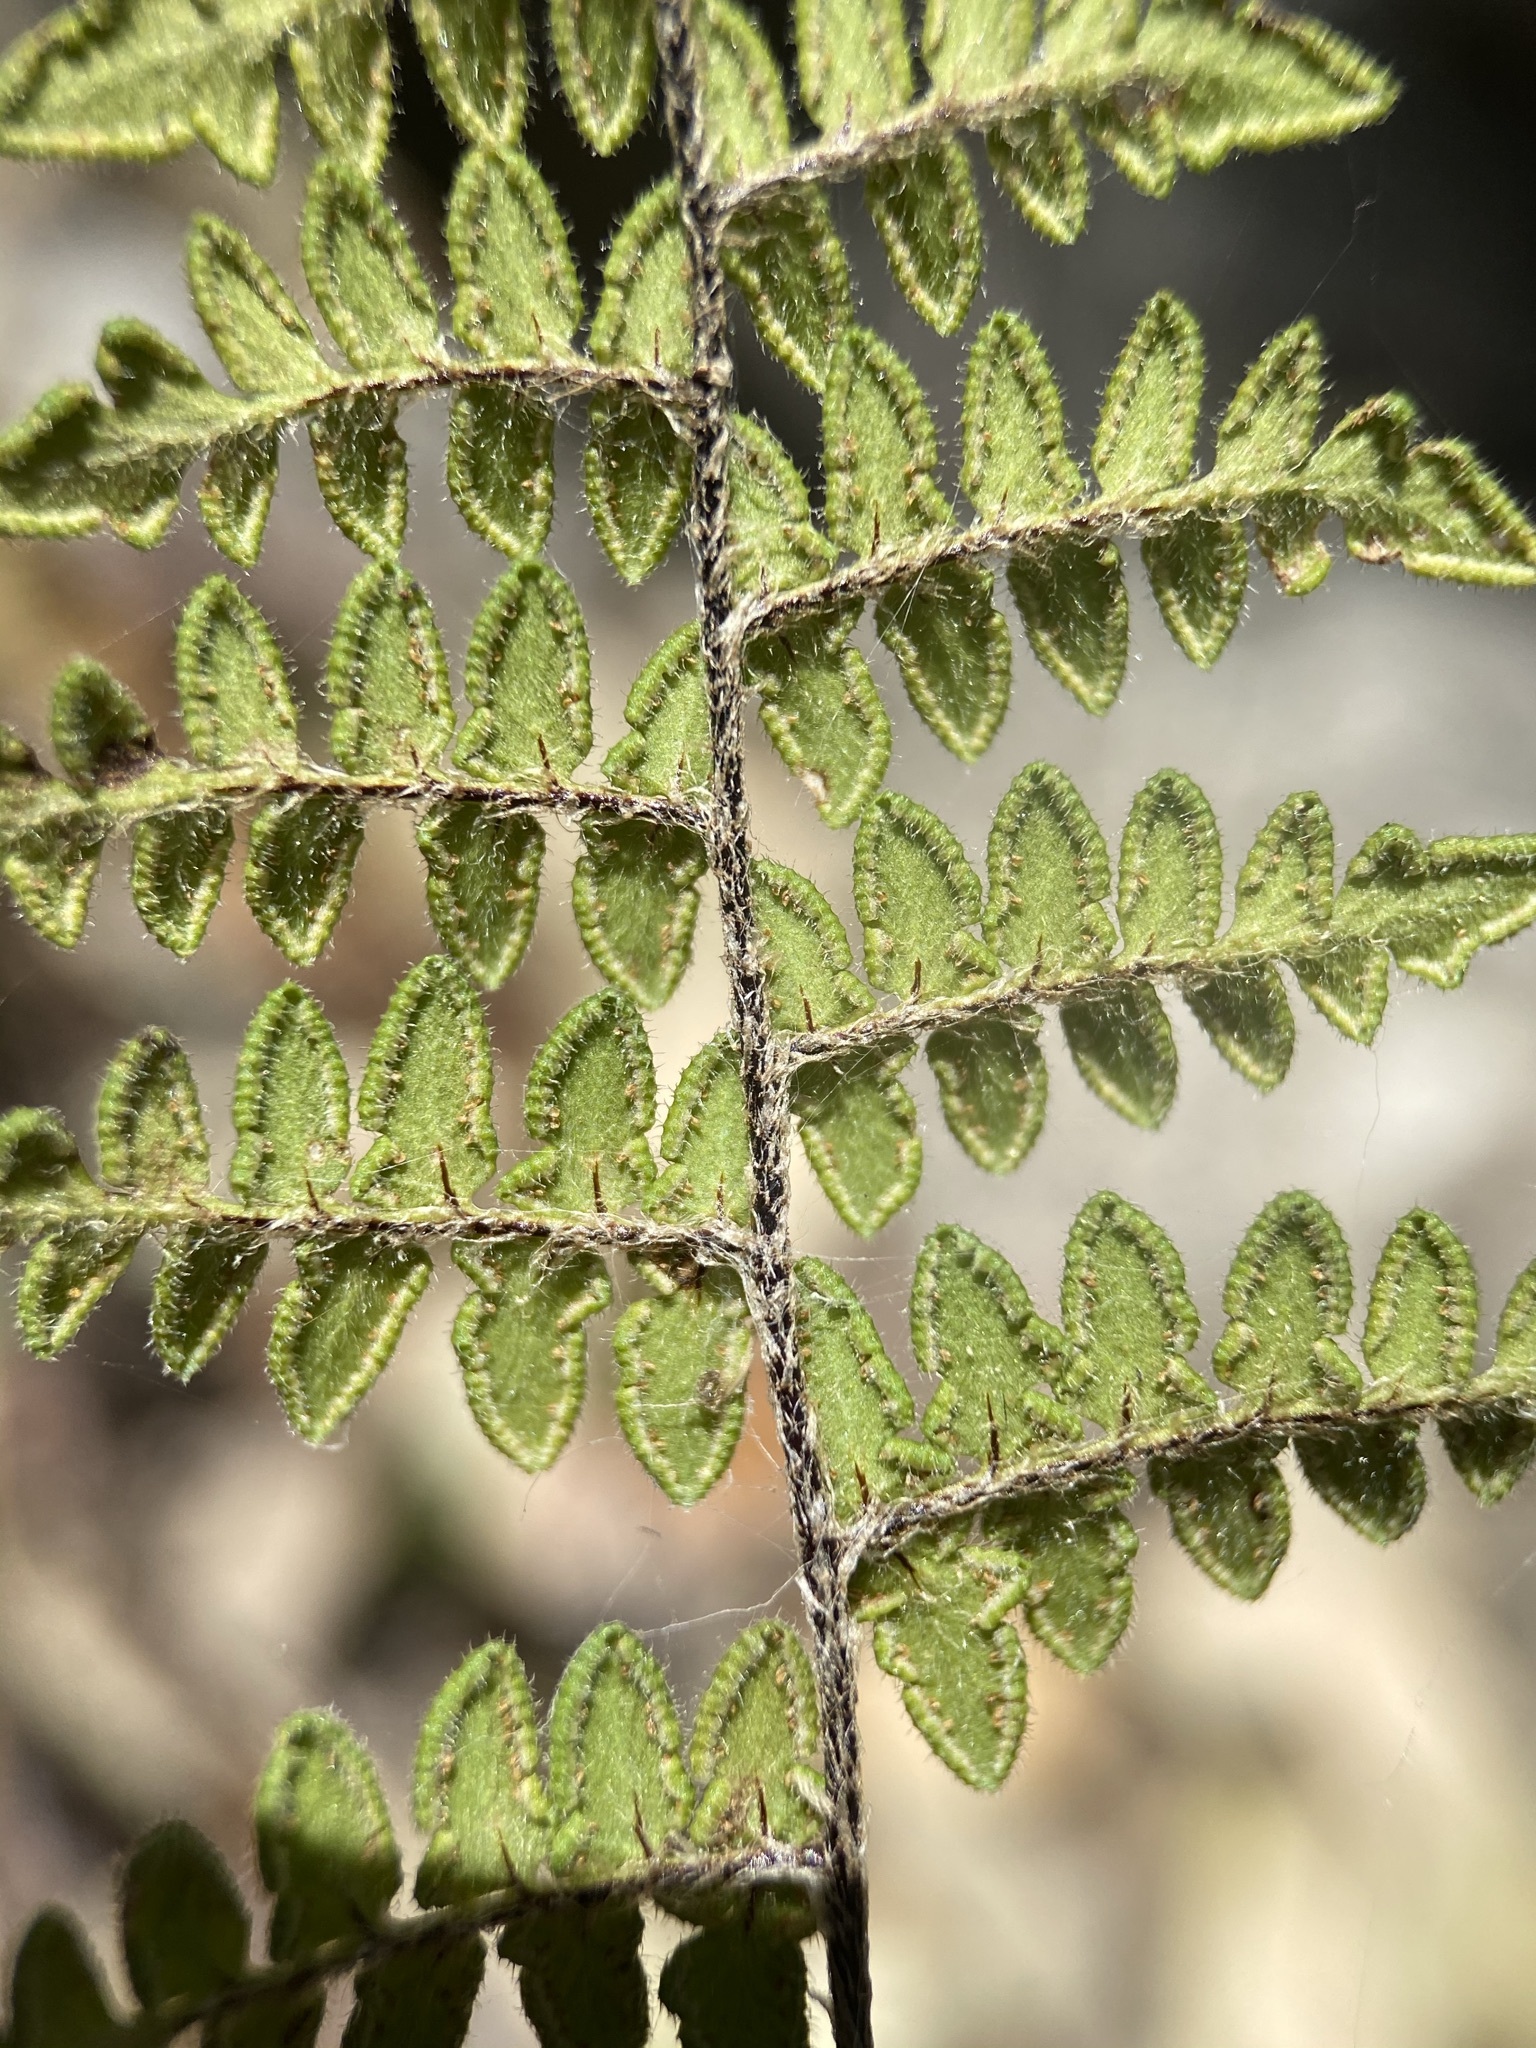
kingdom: Plantae
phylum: Tracheophyta
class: Polypodiopsida
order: Polypodiales
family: Pteridaceae
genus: Myriopteris
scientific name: Myriopteris scabra
